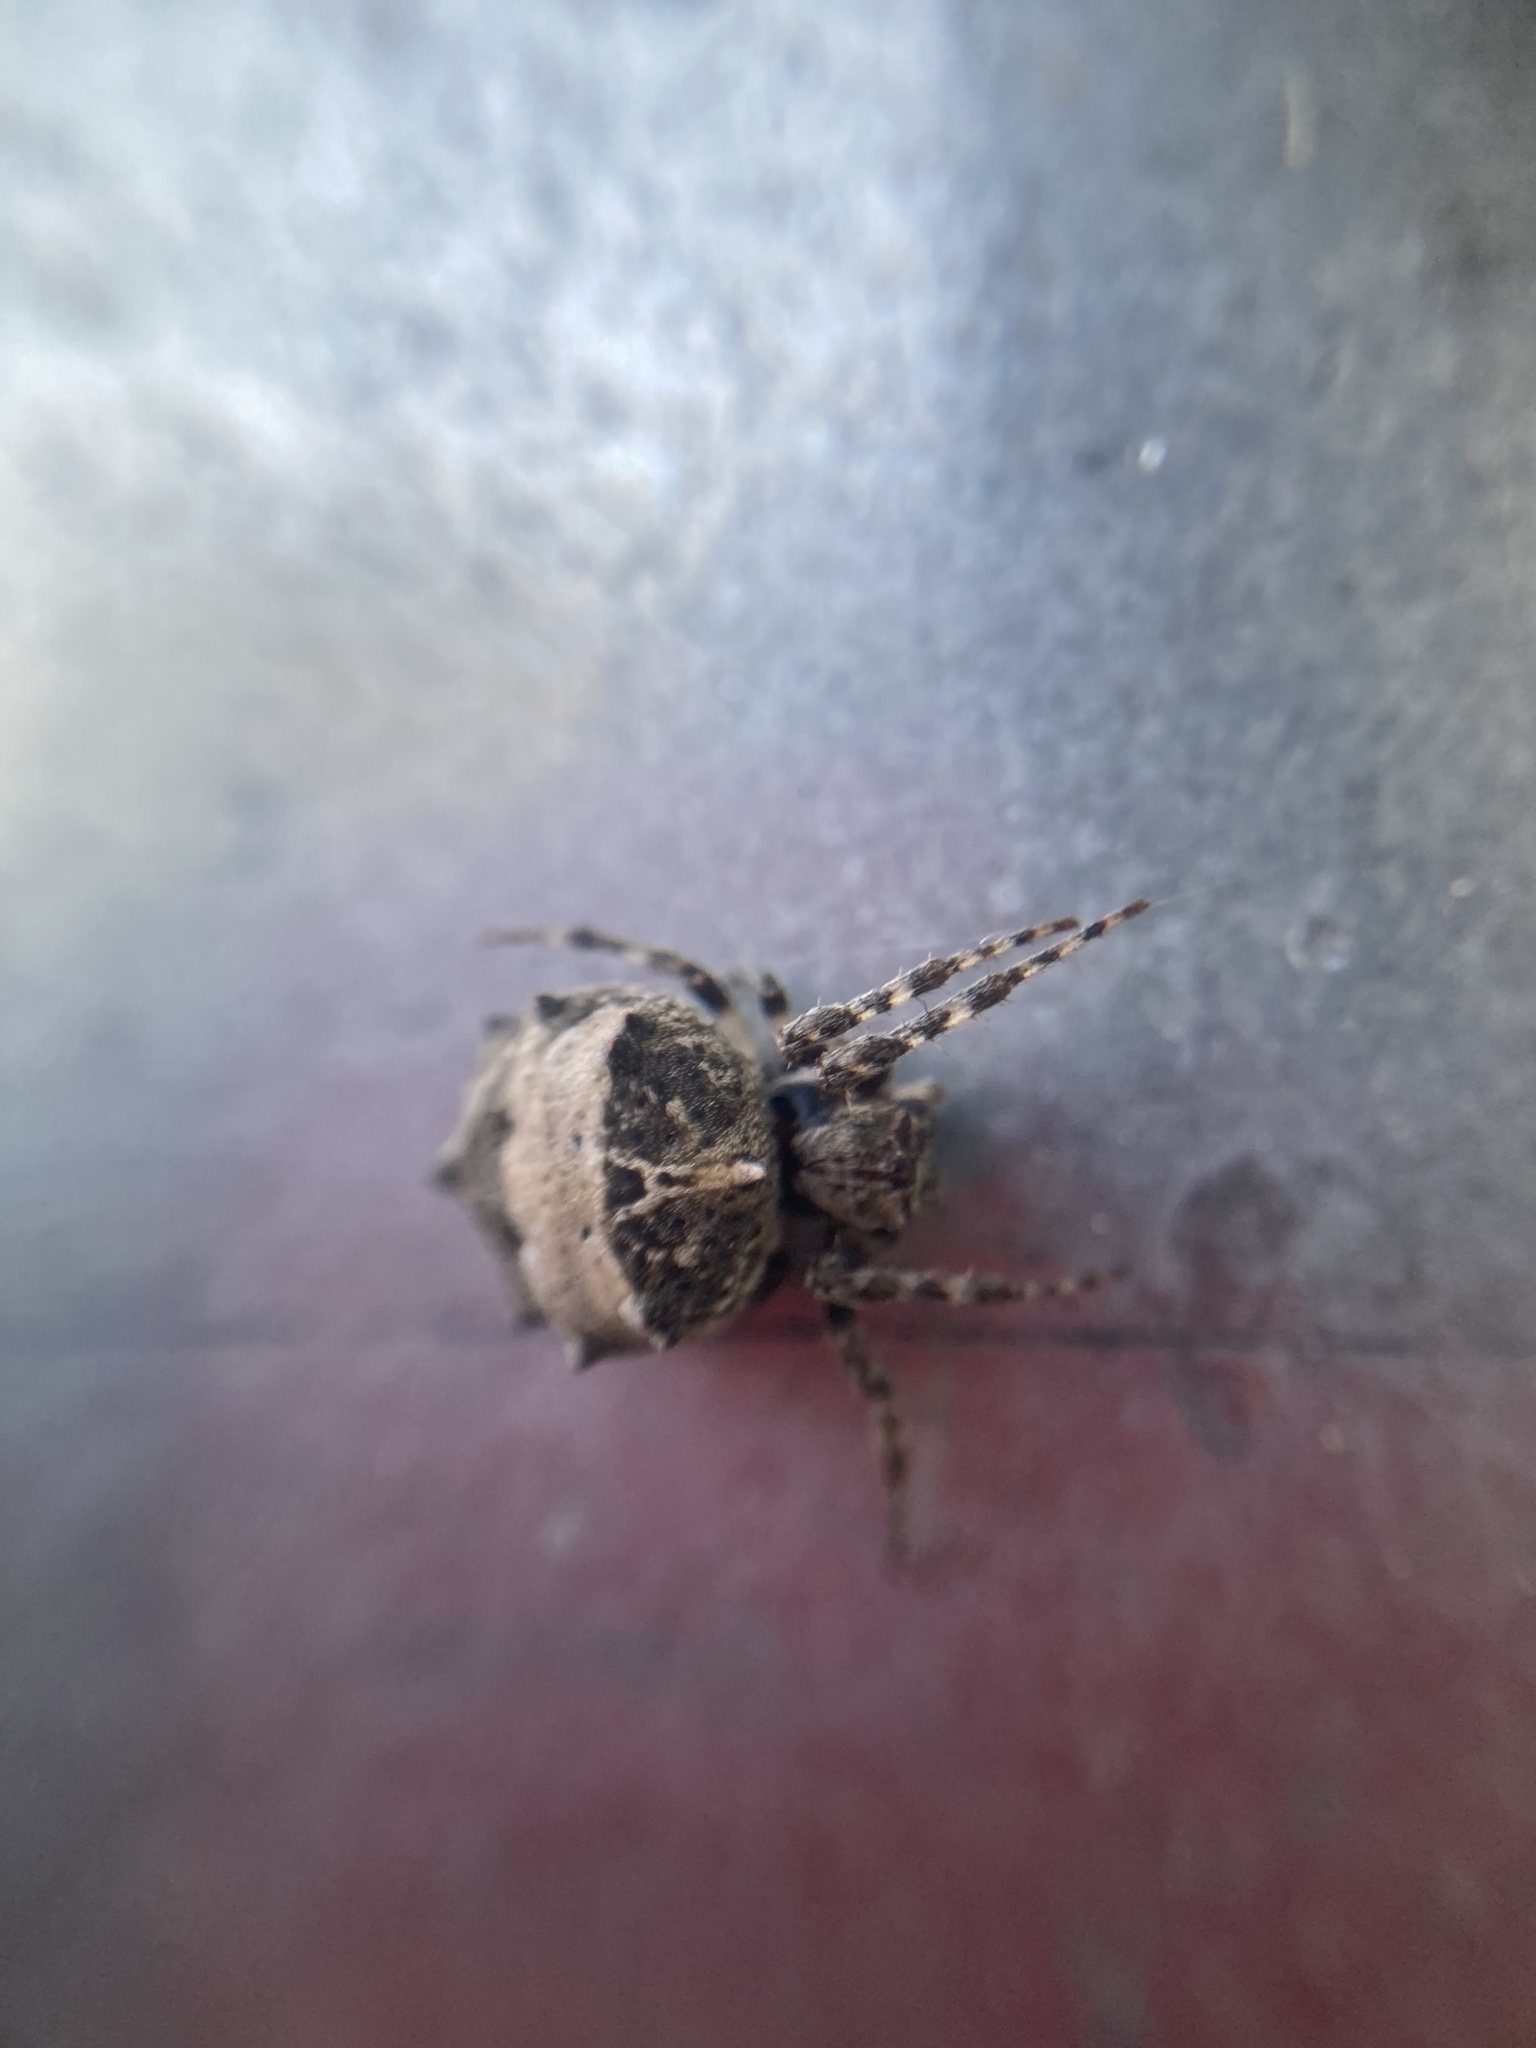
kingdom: Animalia
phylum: Arthropoda
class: Arachnida
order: Araneae
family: Araneidae
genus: Acanthepeira
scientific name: Acanthepeira stellata
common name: Starbellied orbweaver
